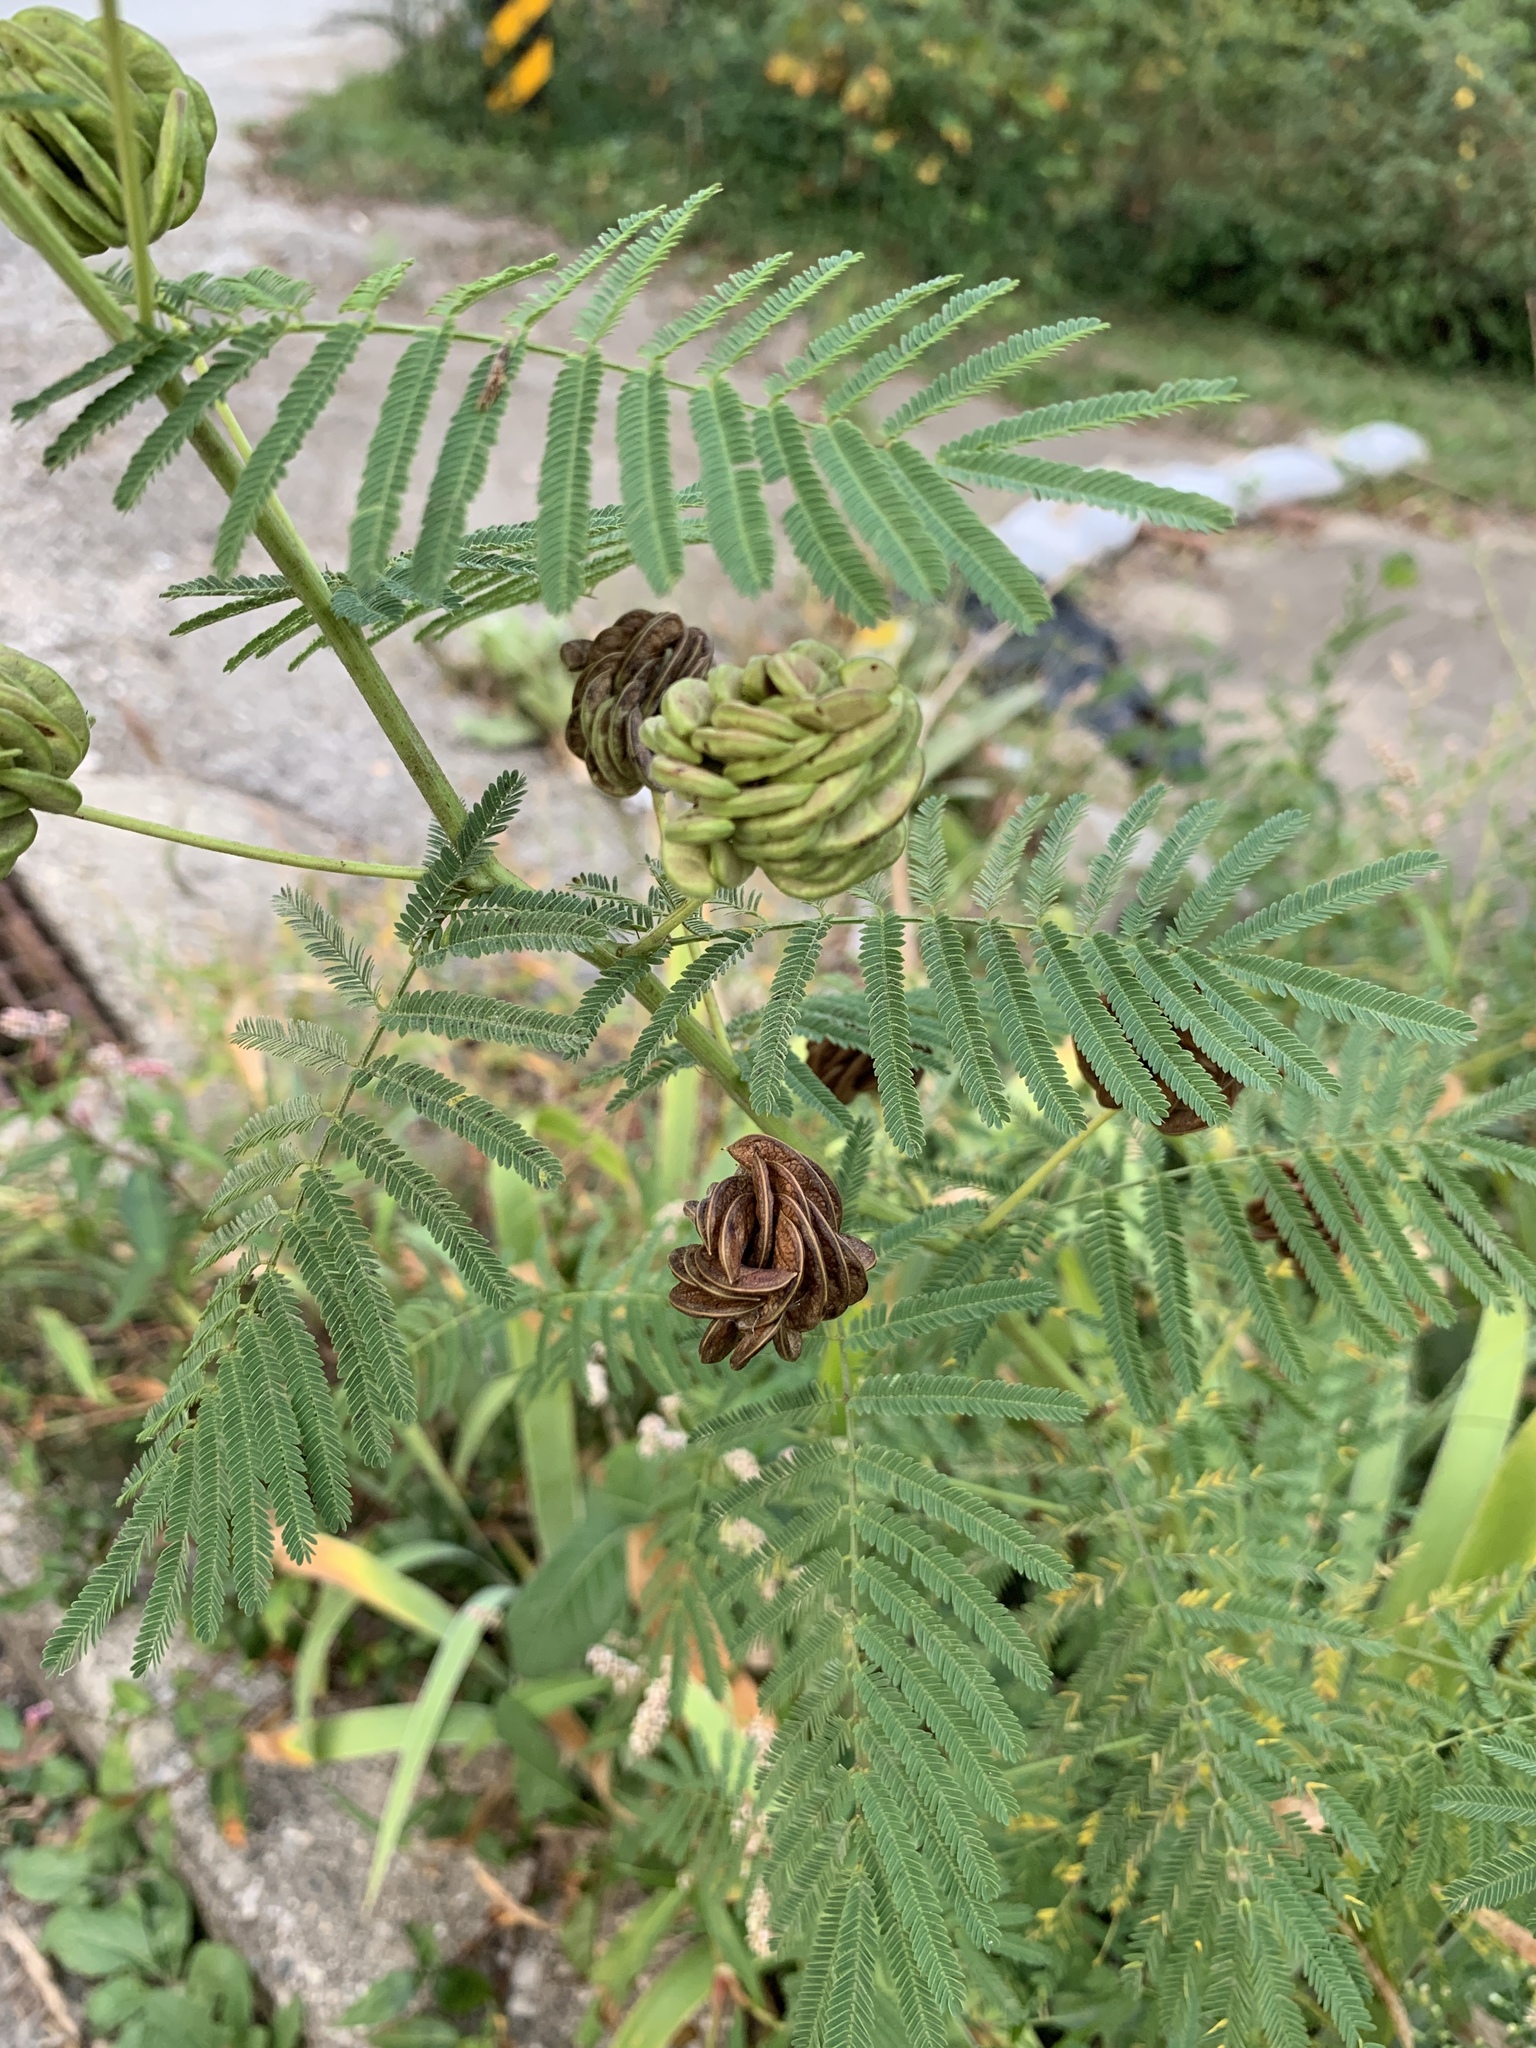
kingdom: Plantae
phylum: Tracheophyta
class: Magnoliopsida
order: Fabales
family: Fabaceae
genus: Desmanthus
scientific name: Desmanthus illinoensis
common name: Illinois bundle-flower
